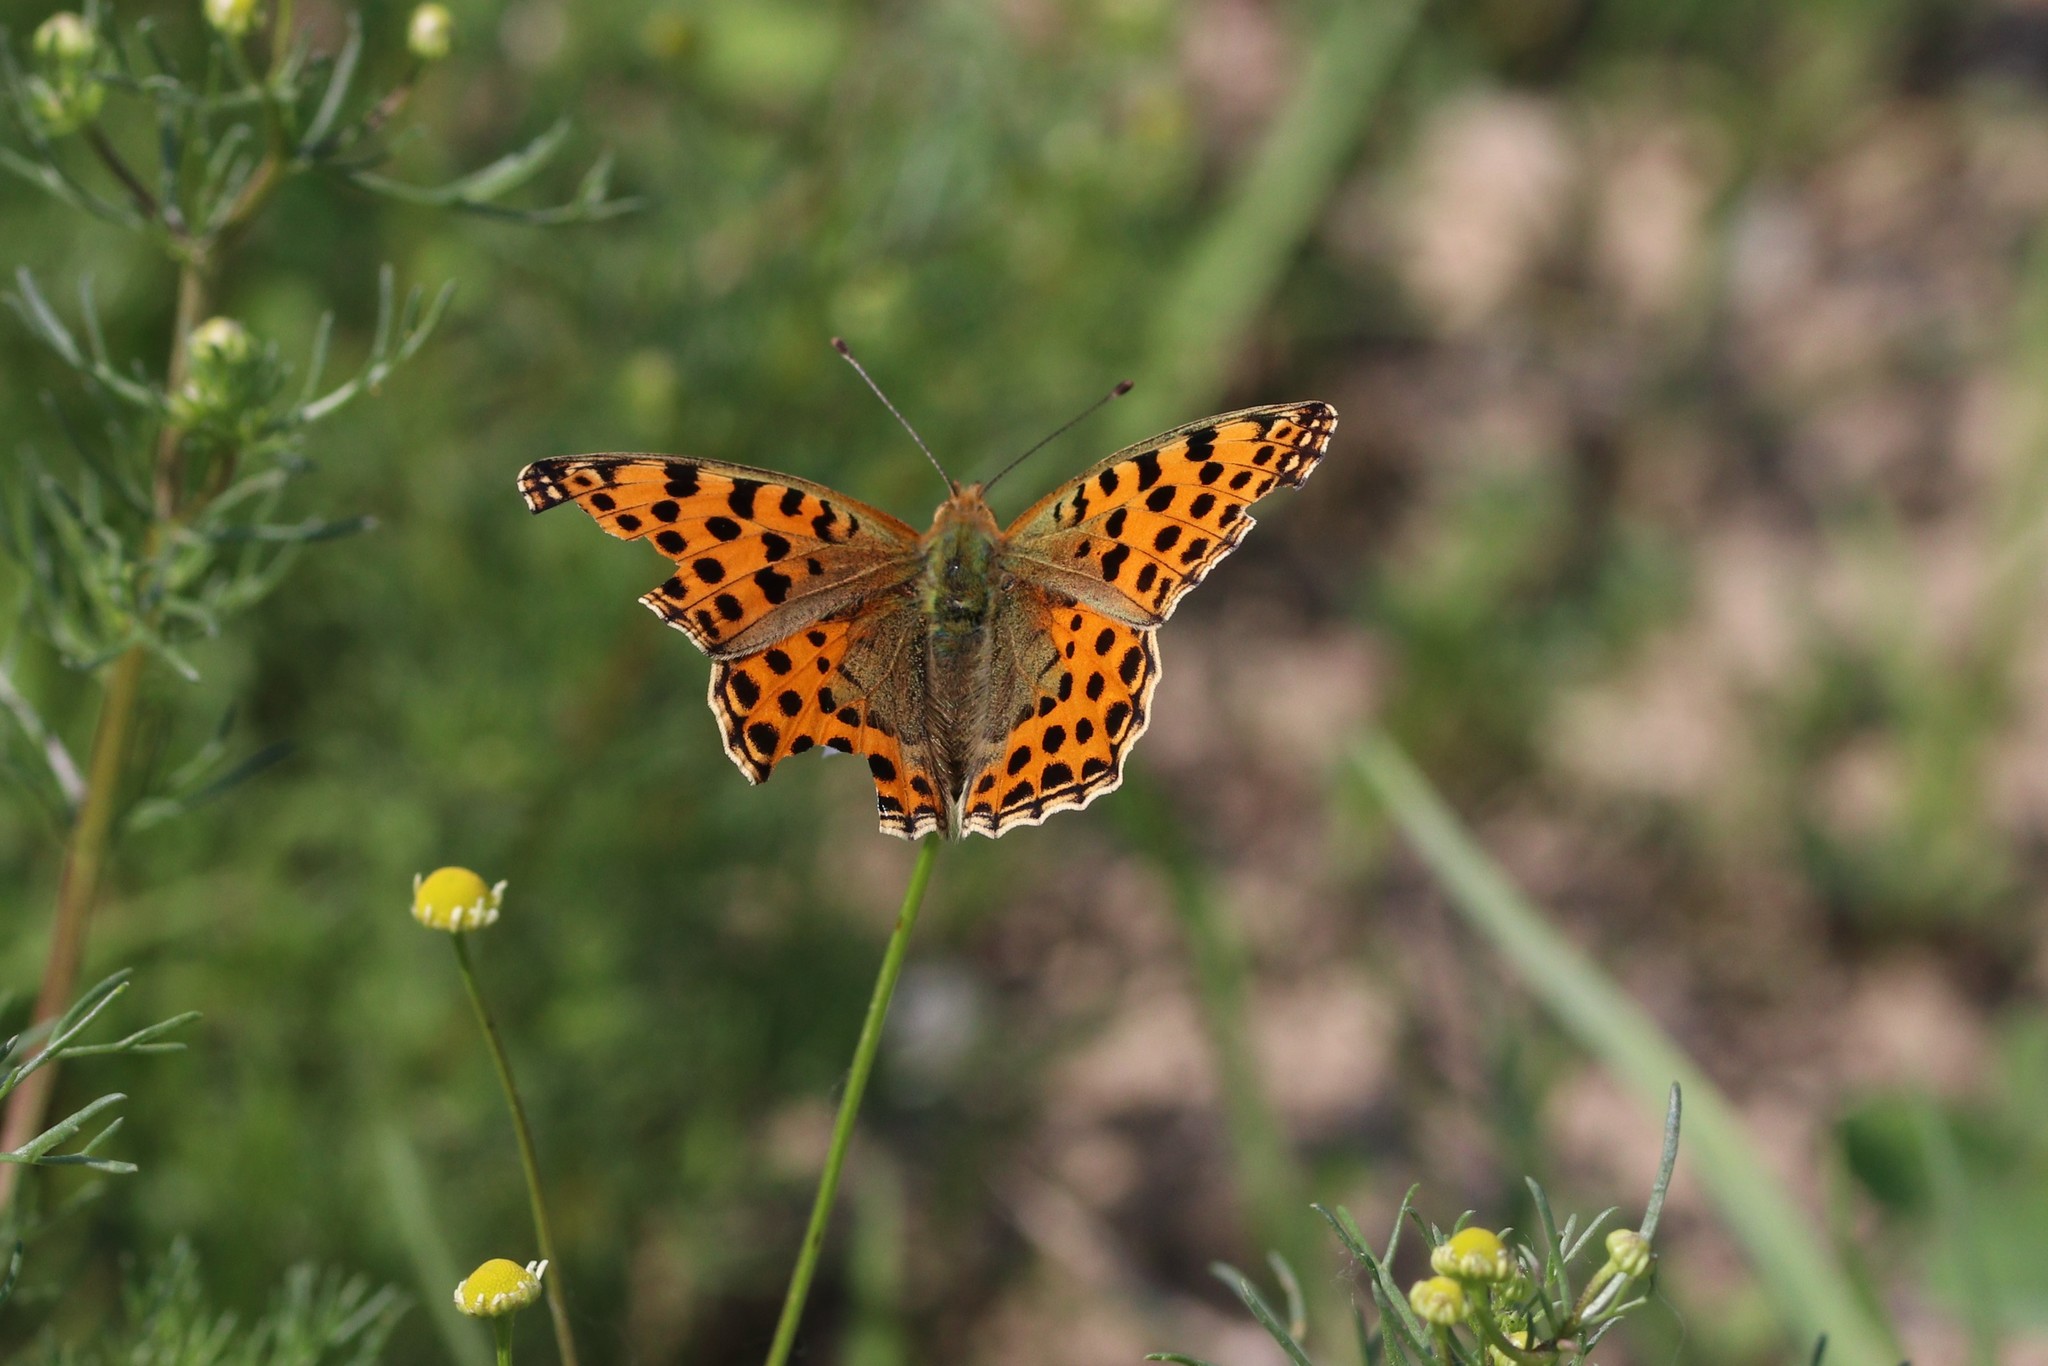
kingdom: Animalia
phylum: Arthropoda
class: Insecta
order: Lepidoptera
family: Nymphalidae
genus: Issoria
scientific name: Issoria lathonia
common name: Queen of spain fritillary
